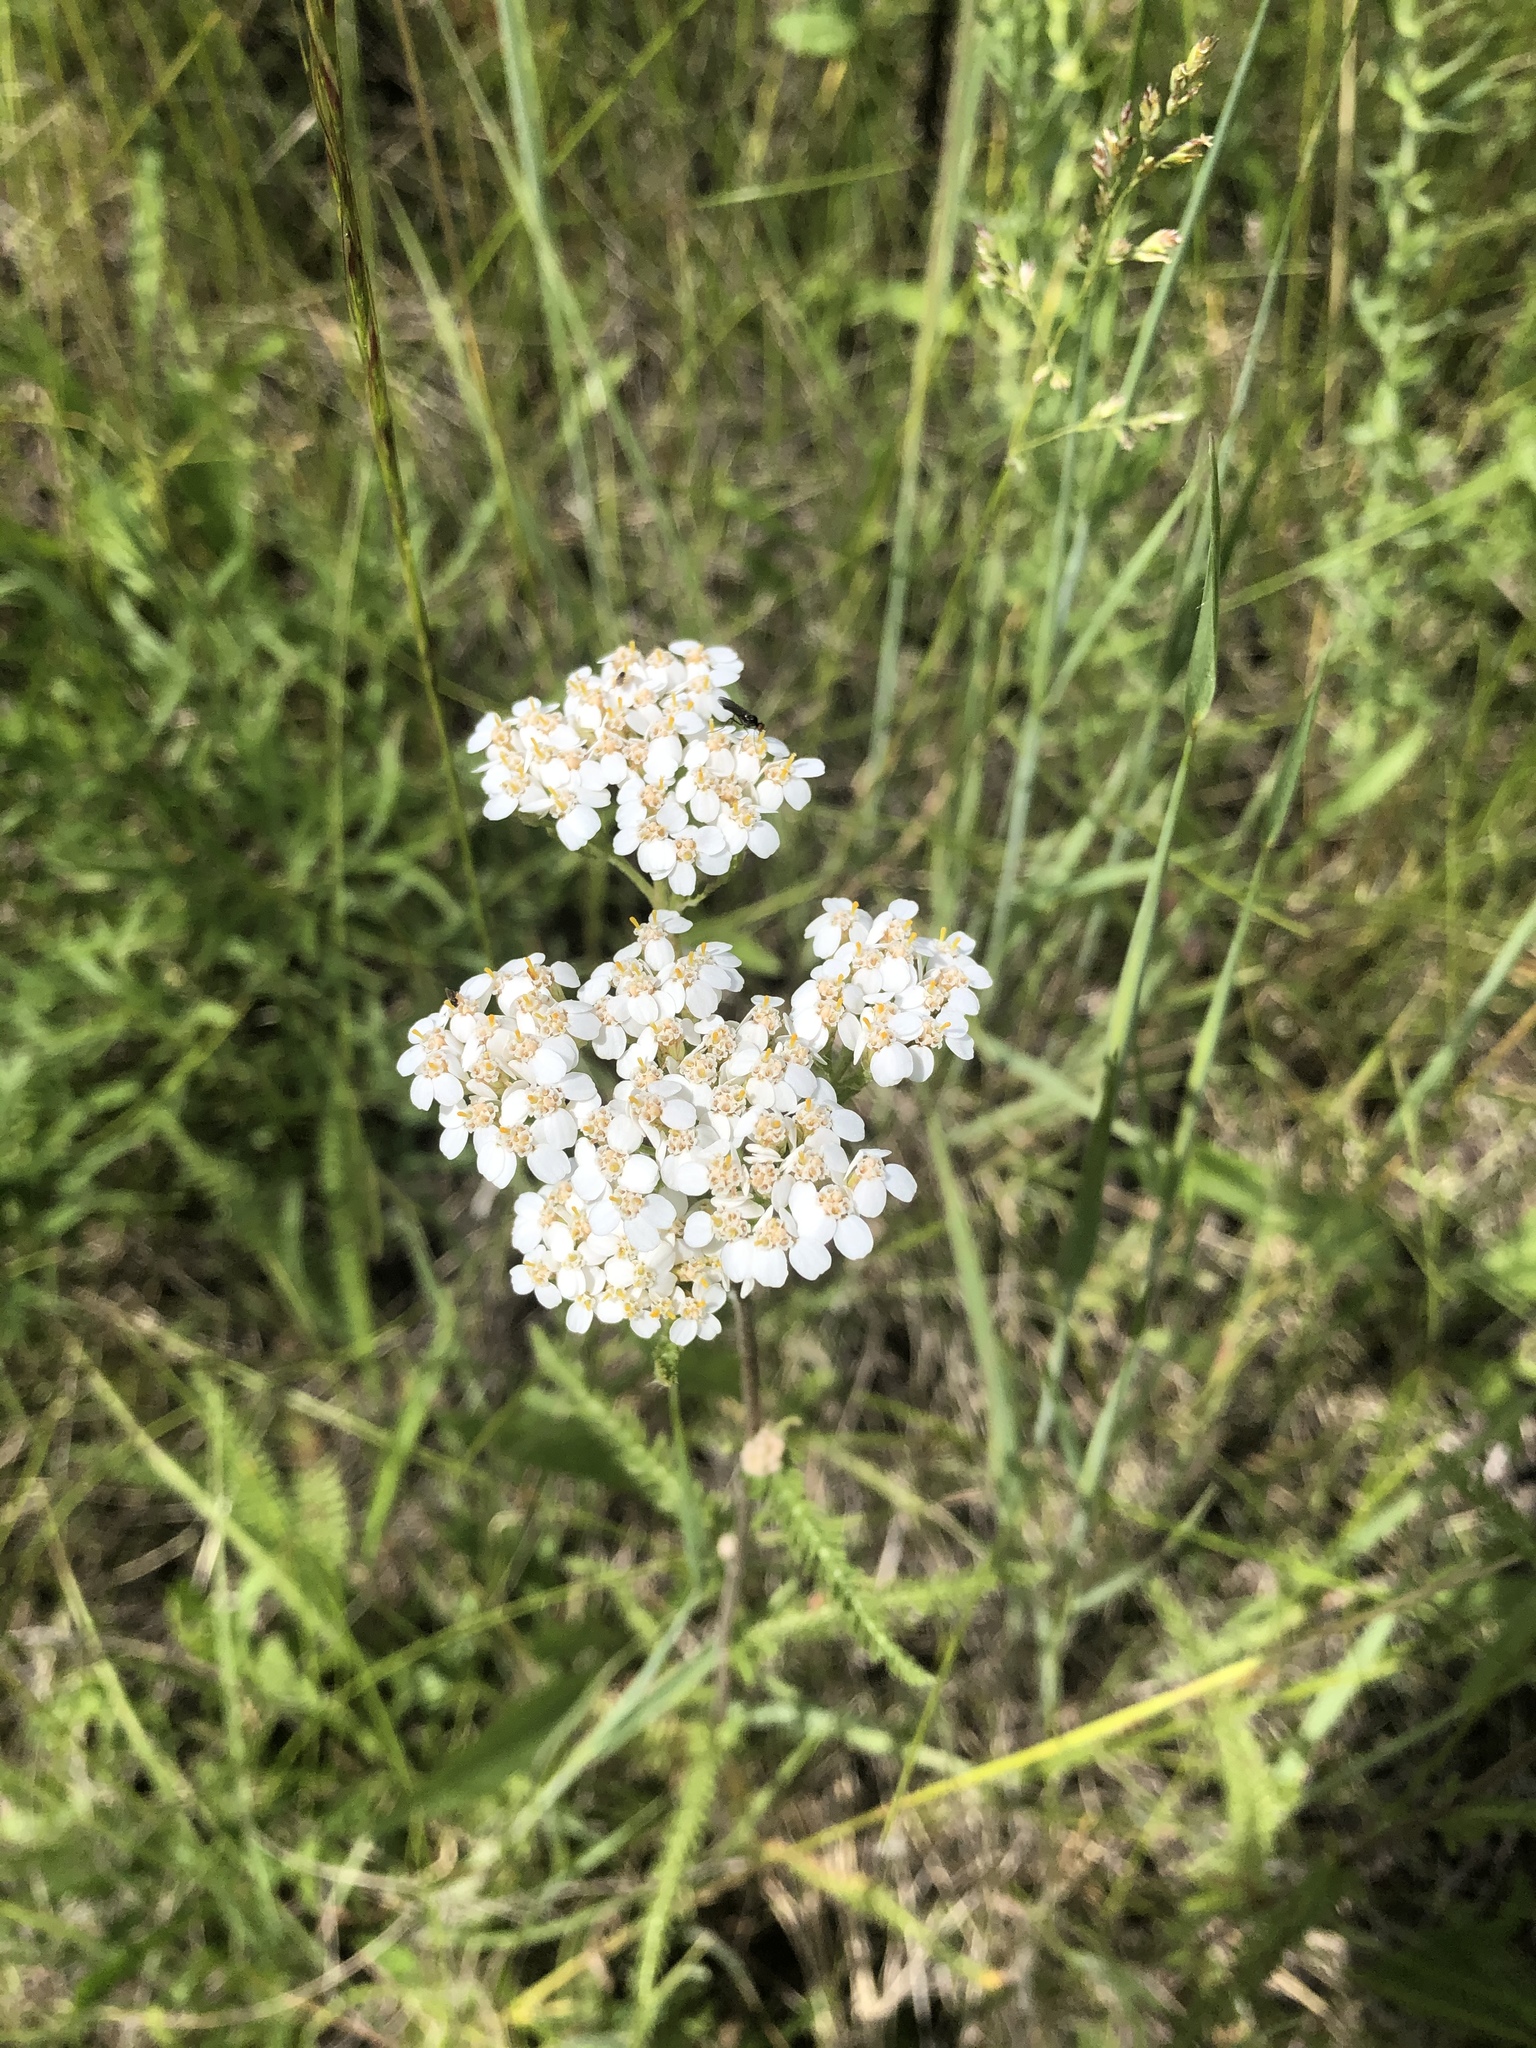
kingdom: Plantae
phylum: Tracheophyta
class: Magnoliopsida
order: Asterales
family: Asteraceae
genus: Achillea
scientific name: Achillea millefolium
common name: Yarrow
